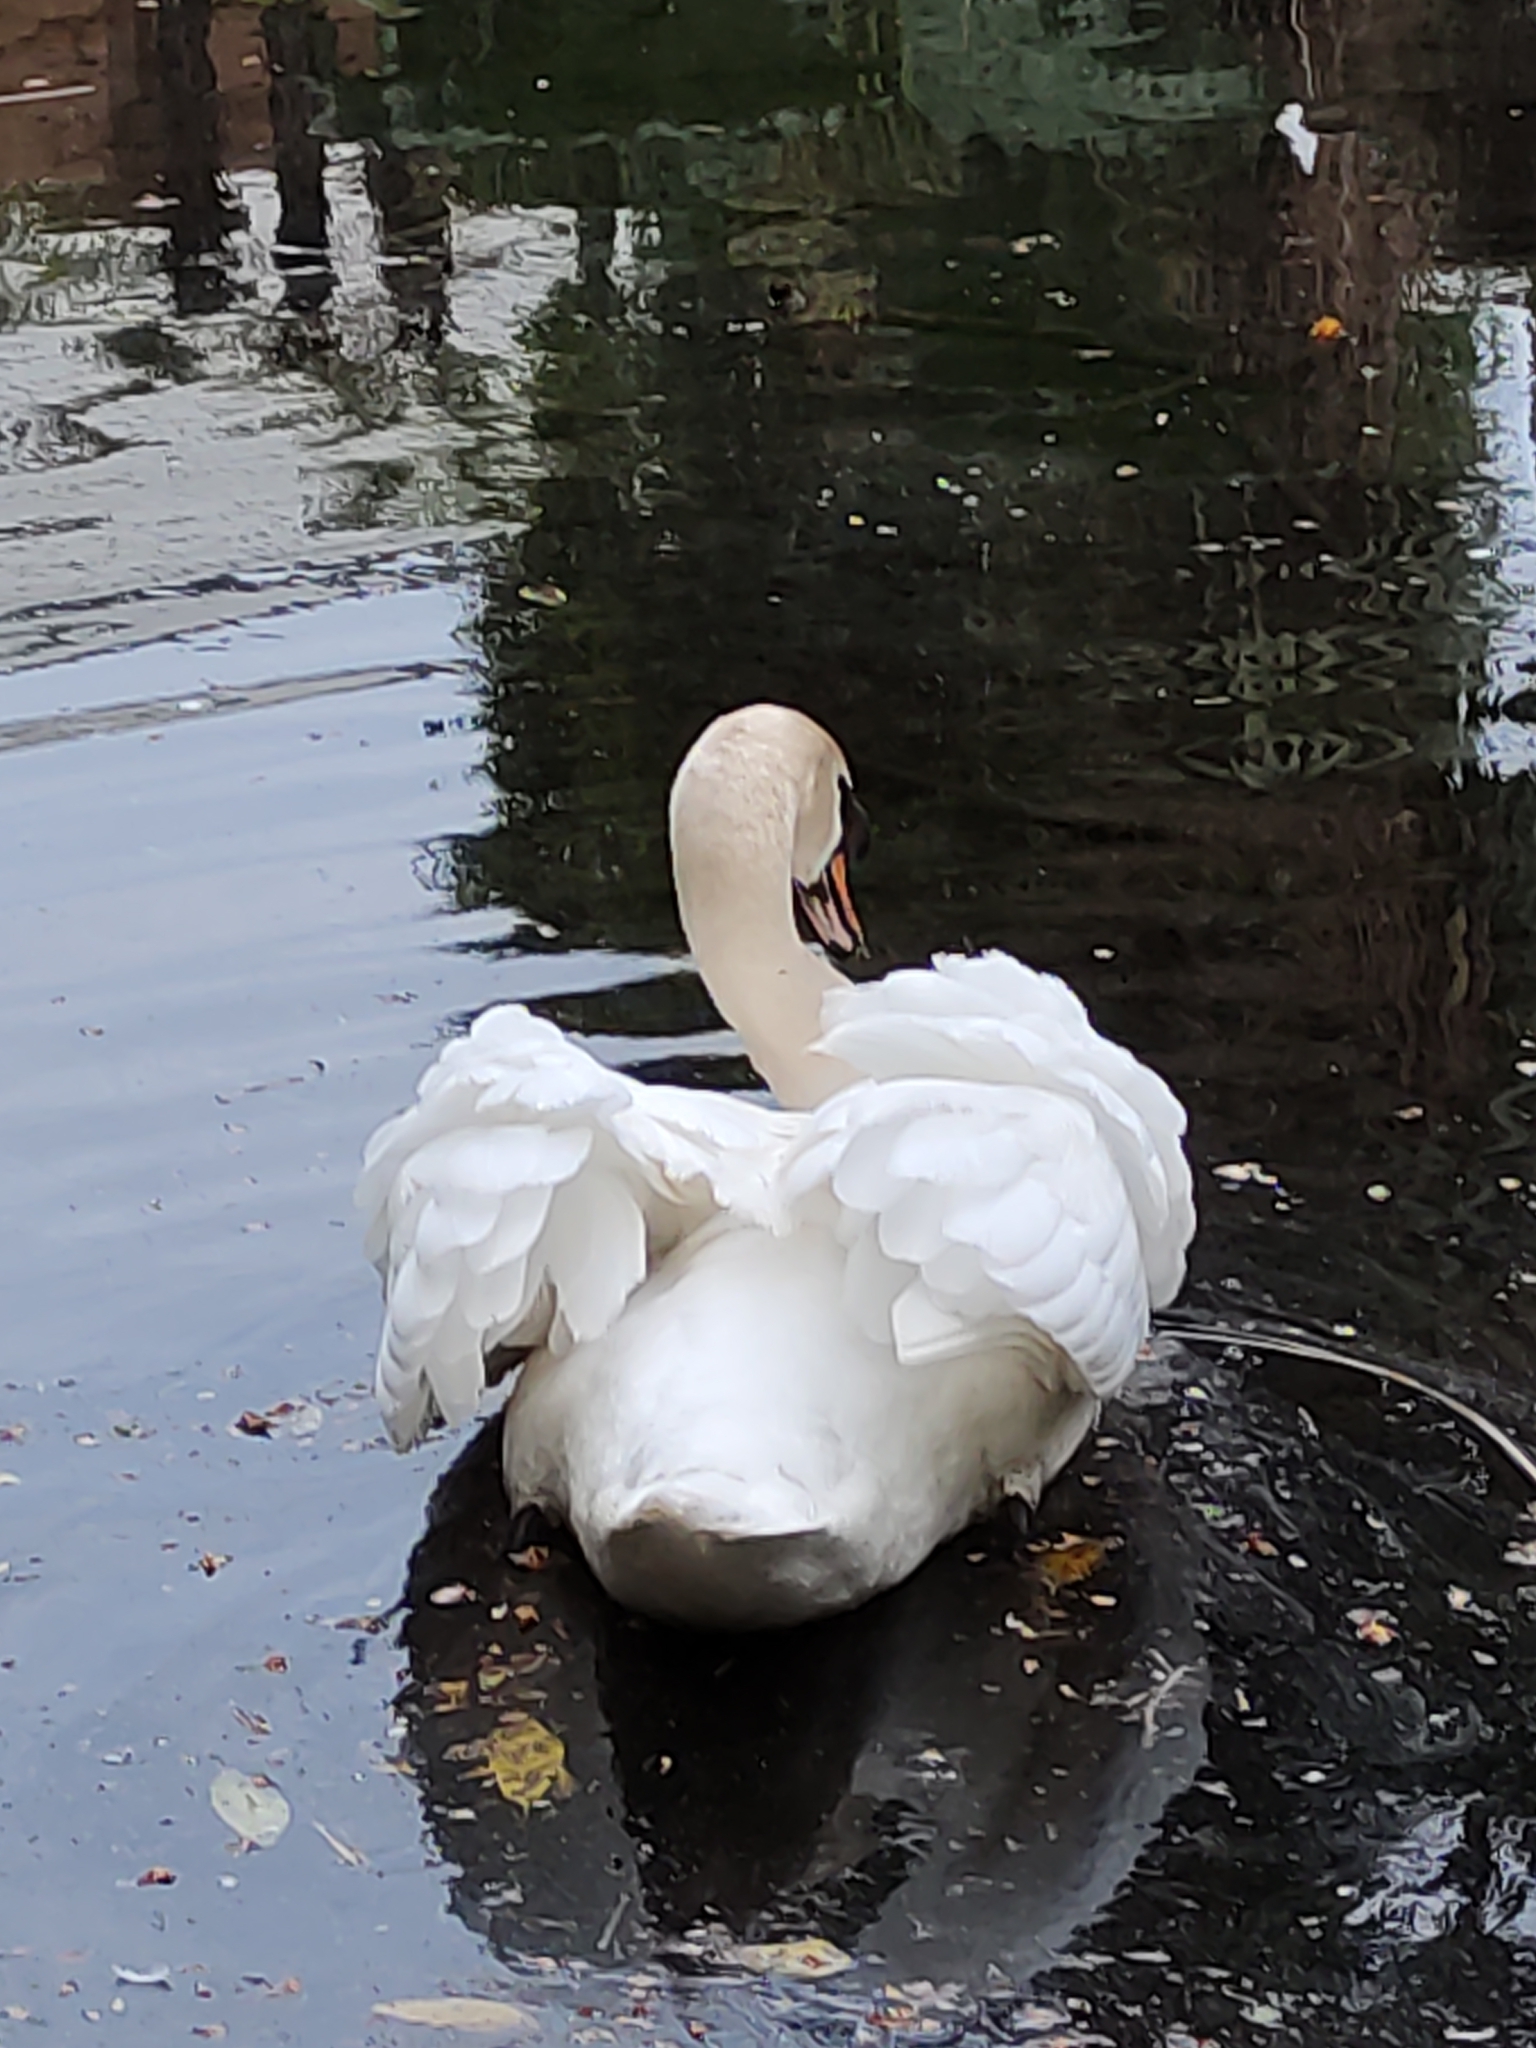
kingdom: Animalia
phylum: Chordata
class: Aves
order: Anseriformes
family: Anatidae
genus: Cygnus
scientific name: Cygnus olor
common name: Mute swan
